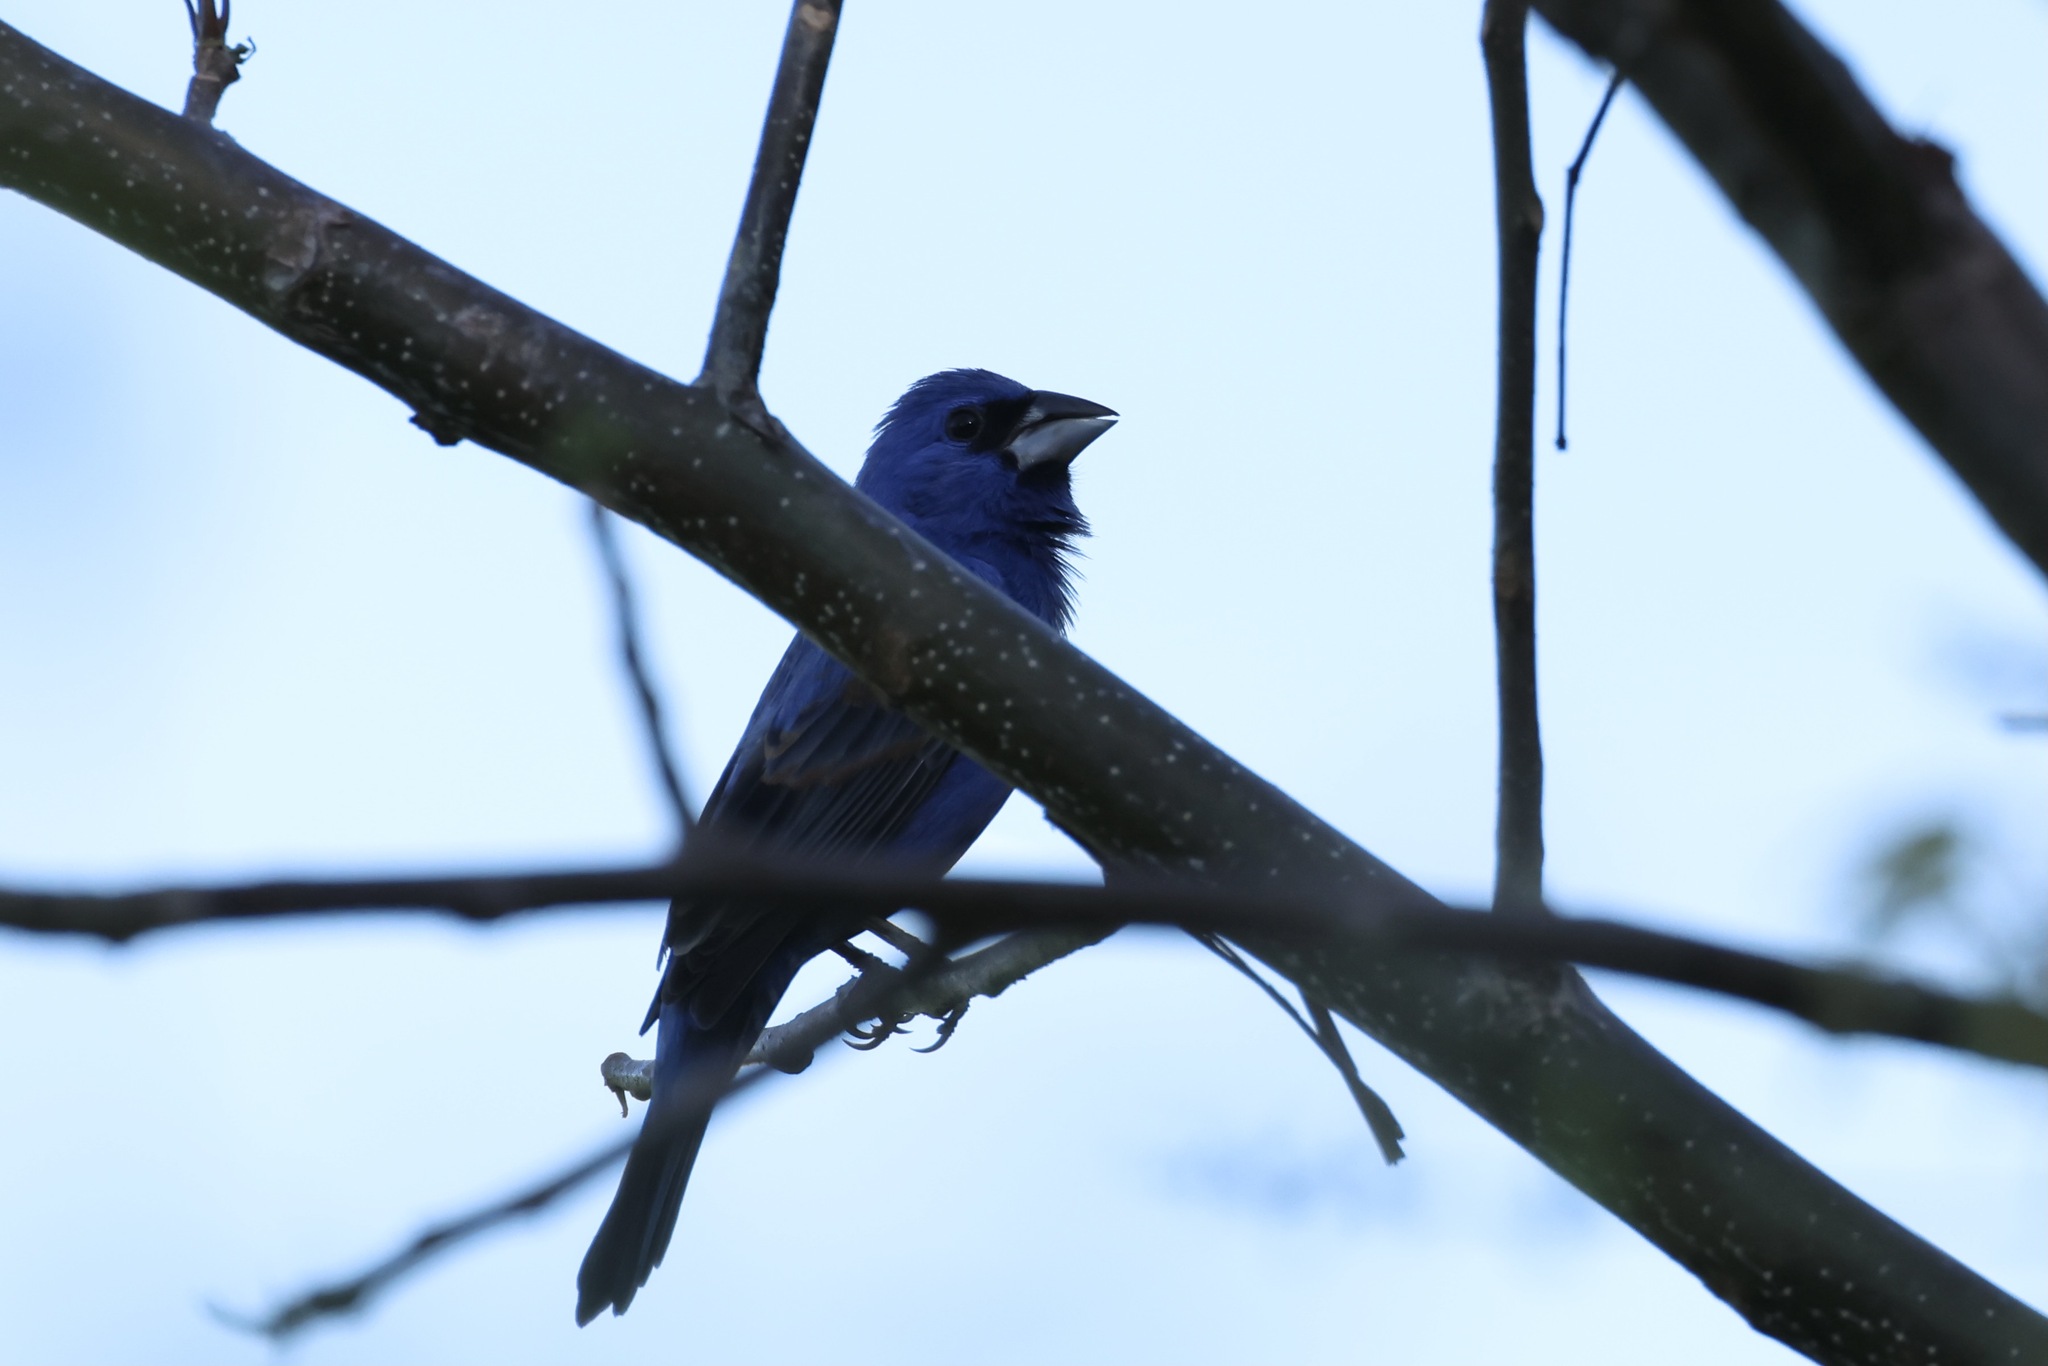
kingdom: Animalia
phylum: Chordata
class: Aves
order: Passeriformes
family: Cardinalidae
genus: Passerina
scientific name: Passerina caerulea
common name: Blue grosbeak
